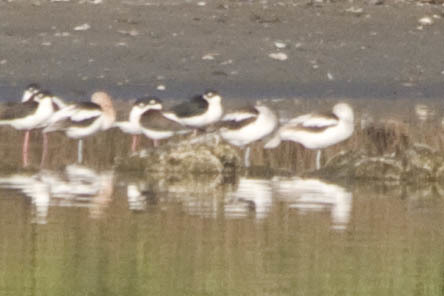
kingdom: Animalia
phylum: Chordata
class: Aves
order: Charadriiformes
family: Recurvirostridae
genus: Recurvirostra
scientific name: Recurvirostra americana
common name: American avocet
